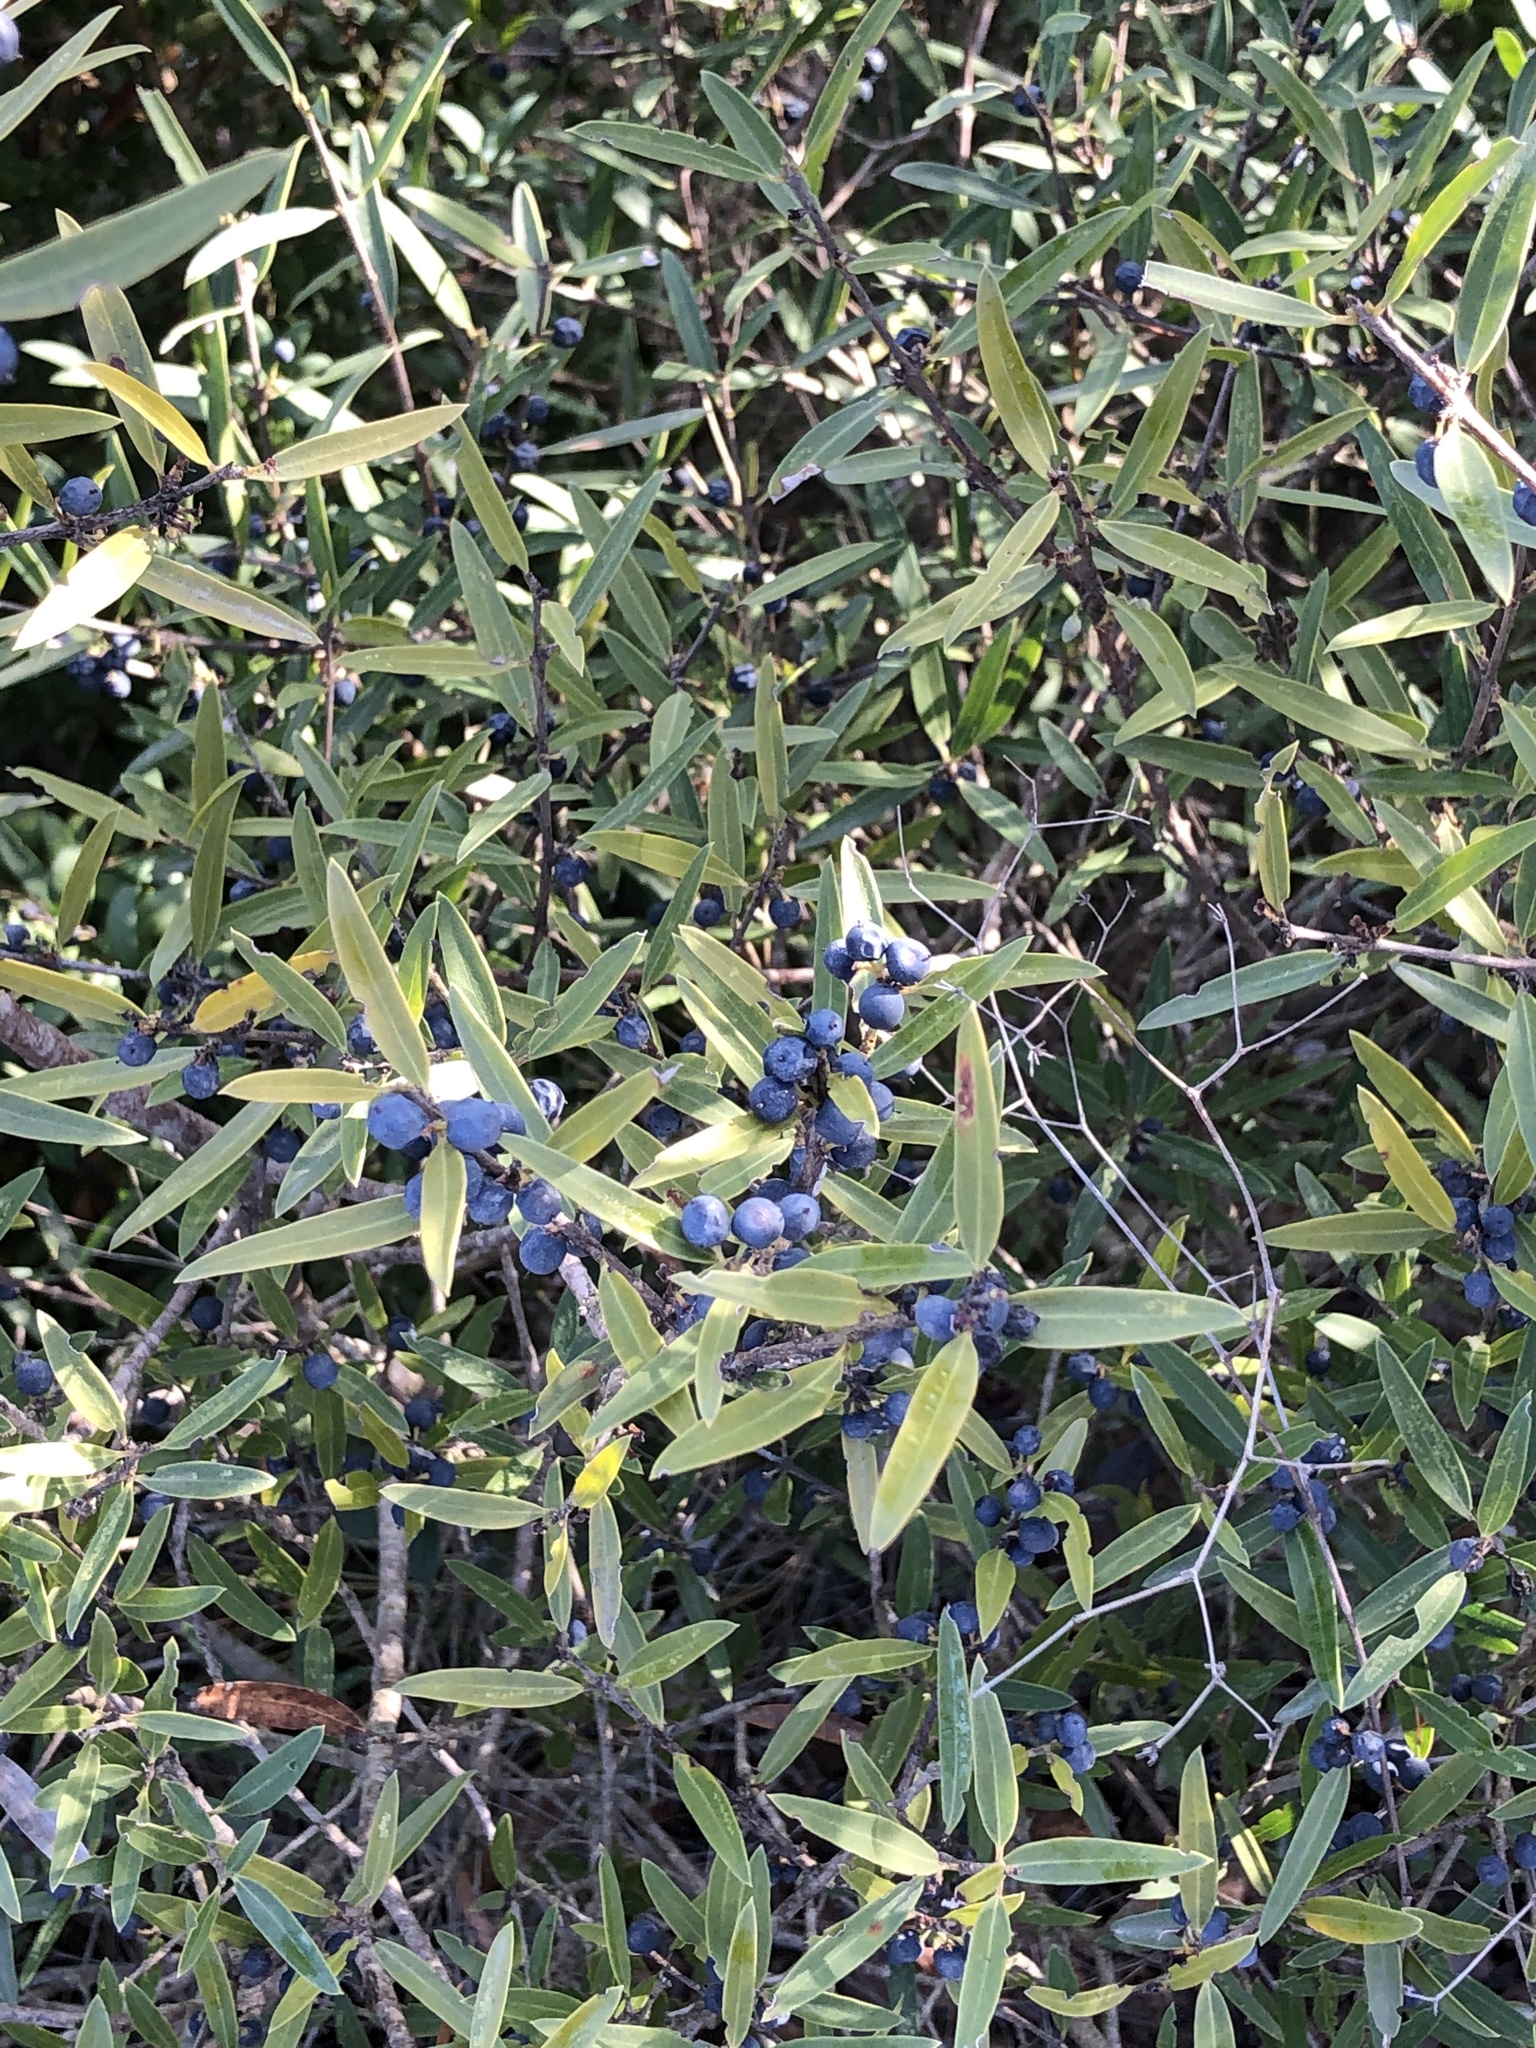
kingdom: Plantae
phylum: Tracheophyta
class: Magnoliopsida
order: Lamiales
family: Oleaceae
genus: Phillyrea
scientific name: Phillyrea angustifolia
